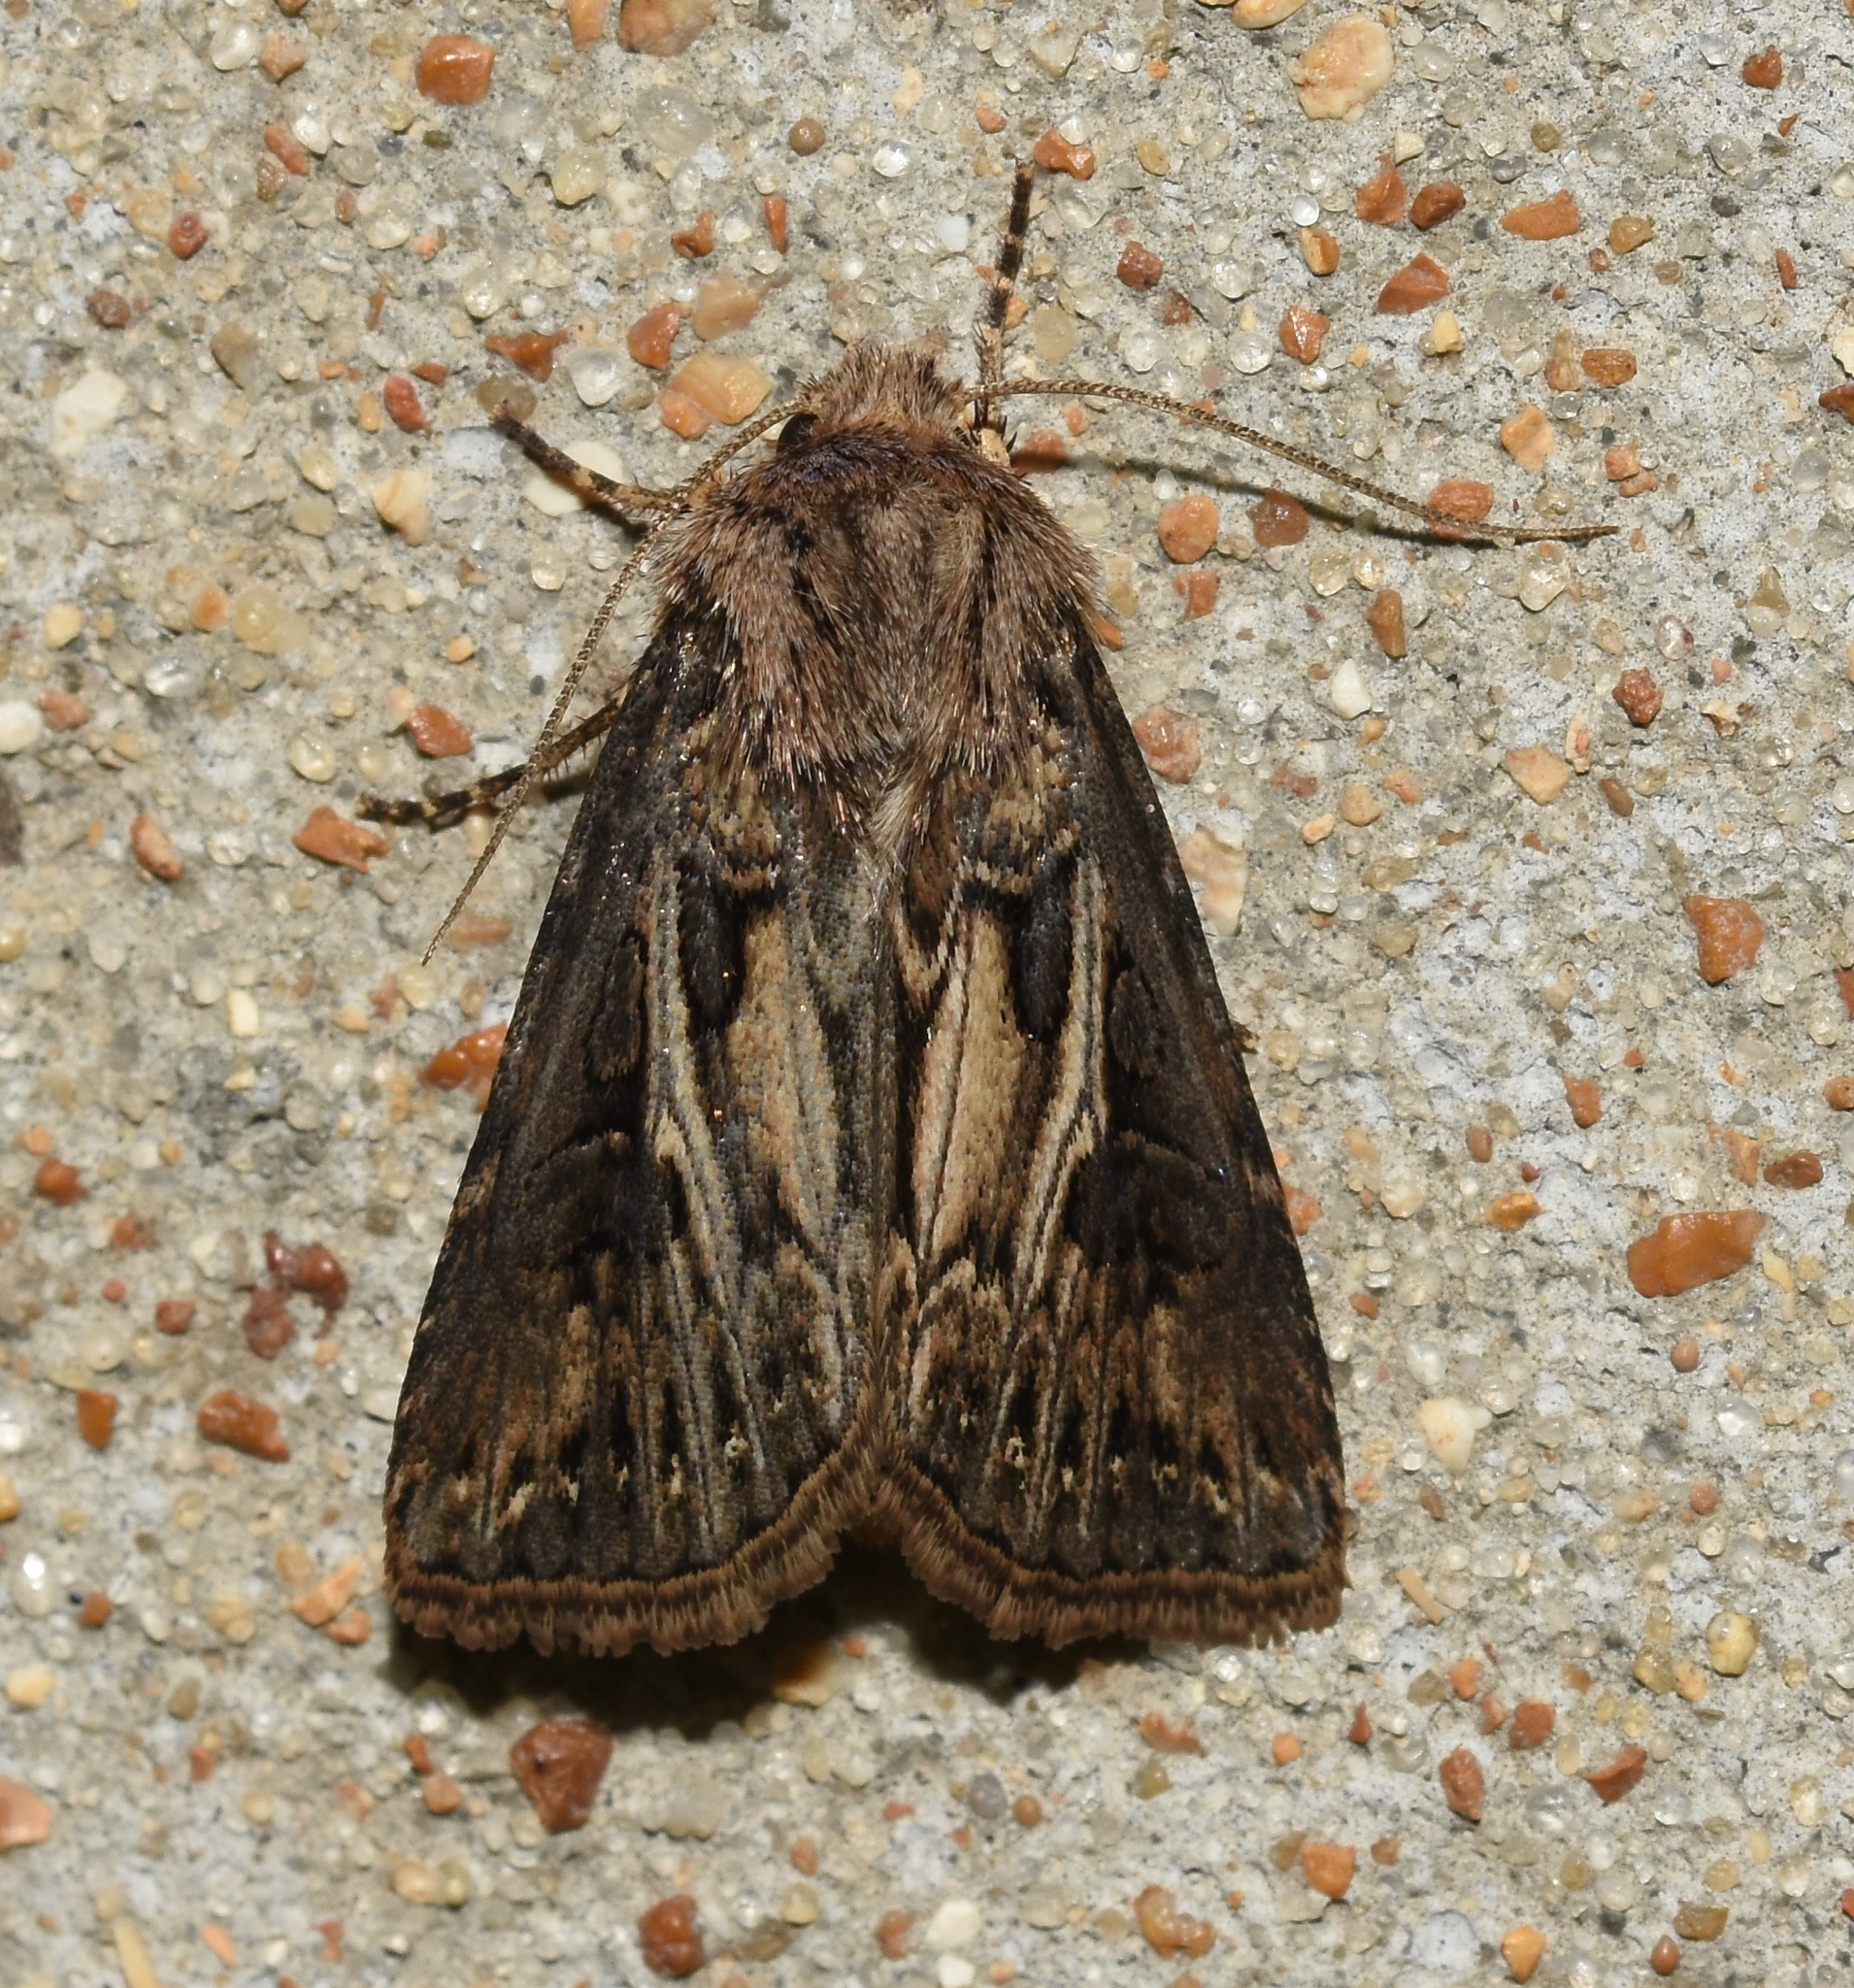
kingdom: Animalia
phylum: Arthropoda
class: Insecta
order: Lepidoptera
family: Noctuidae
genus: Agrotis
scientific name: Agrotis gladiaria
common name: Claybacked cutworm
